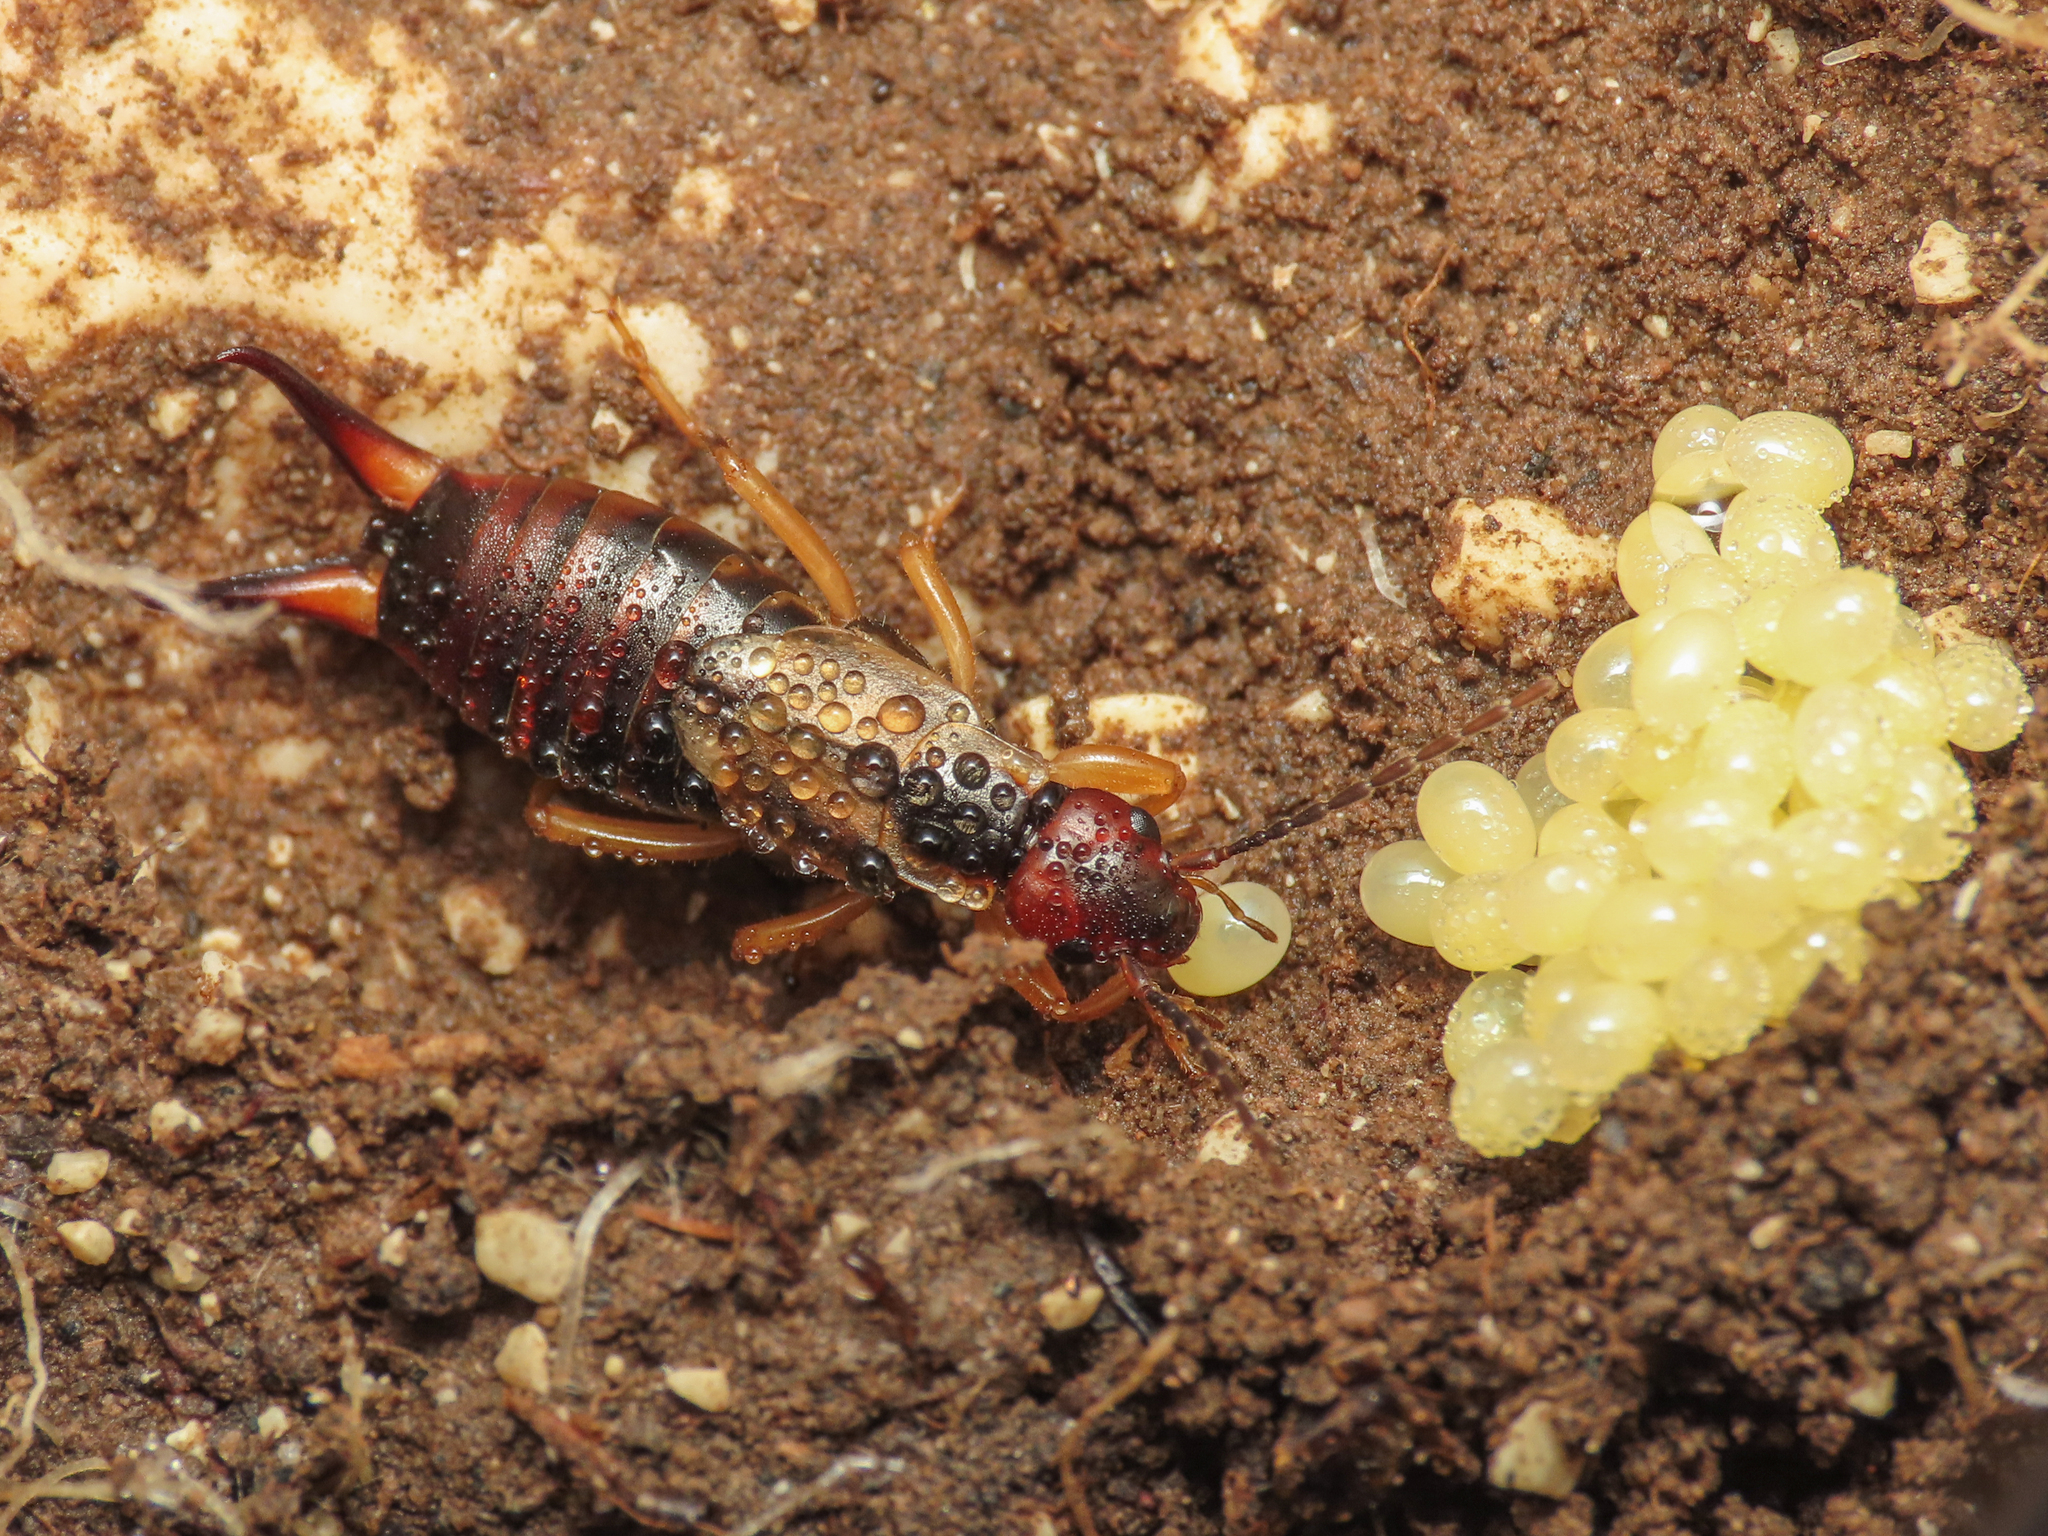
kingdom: Animalia
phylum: Arthropoda
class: Insecta
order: Dermaptera
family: Forficulidae
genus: Forficula
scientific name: Forficula auricularia
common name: European earwig
